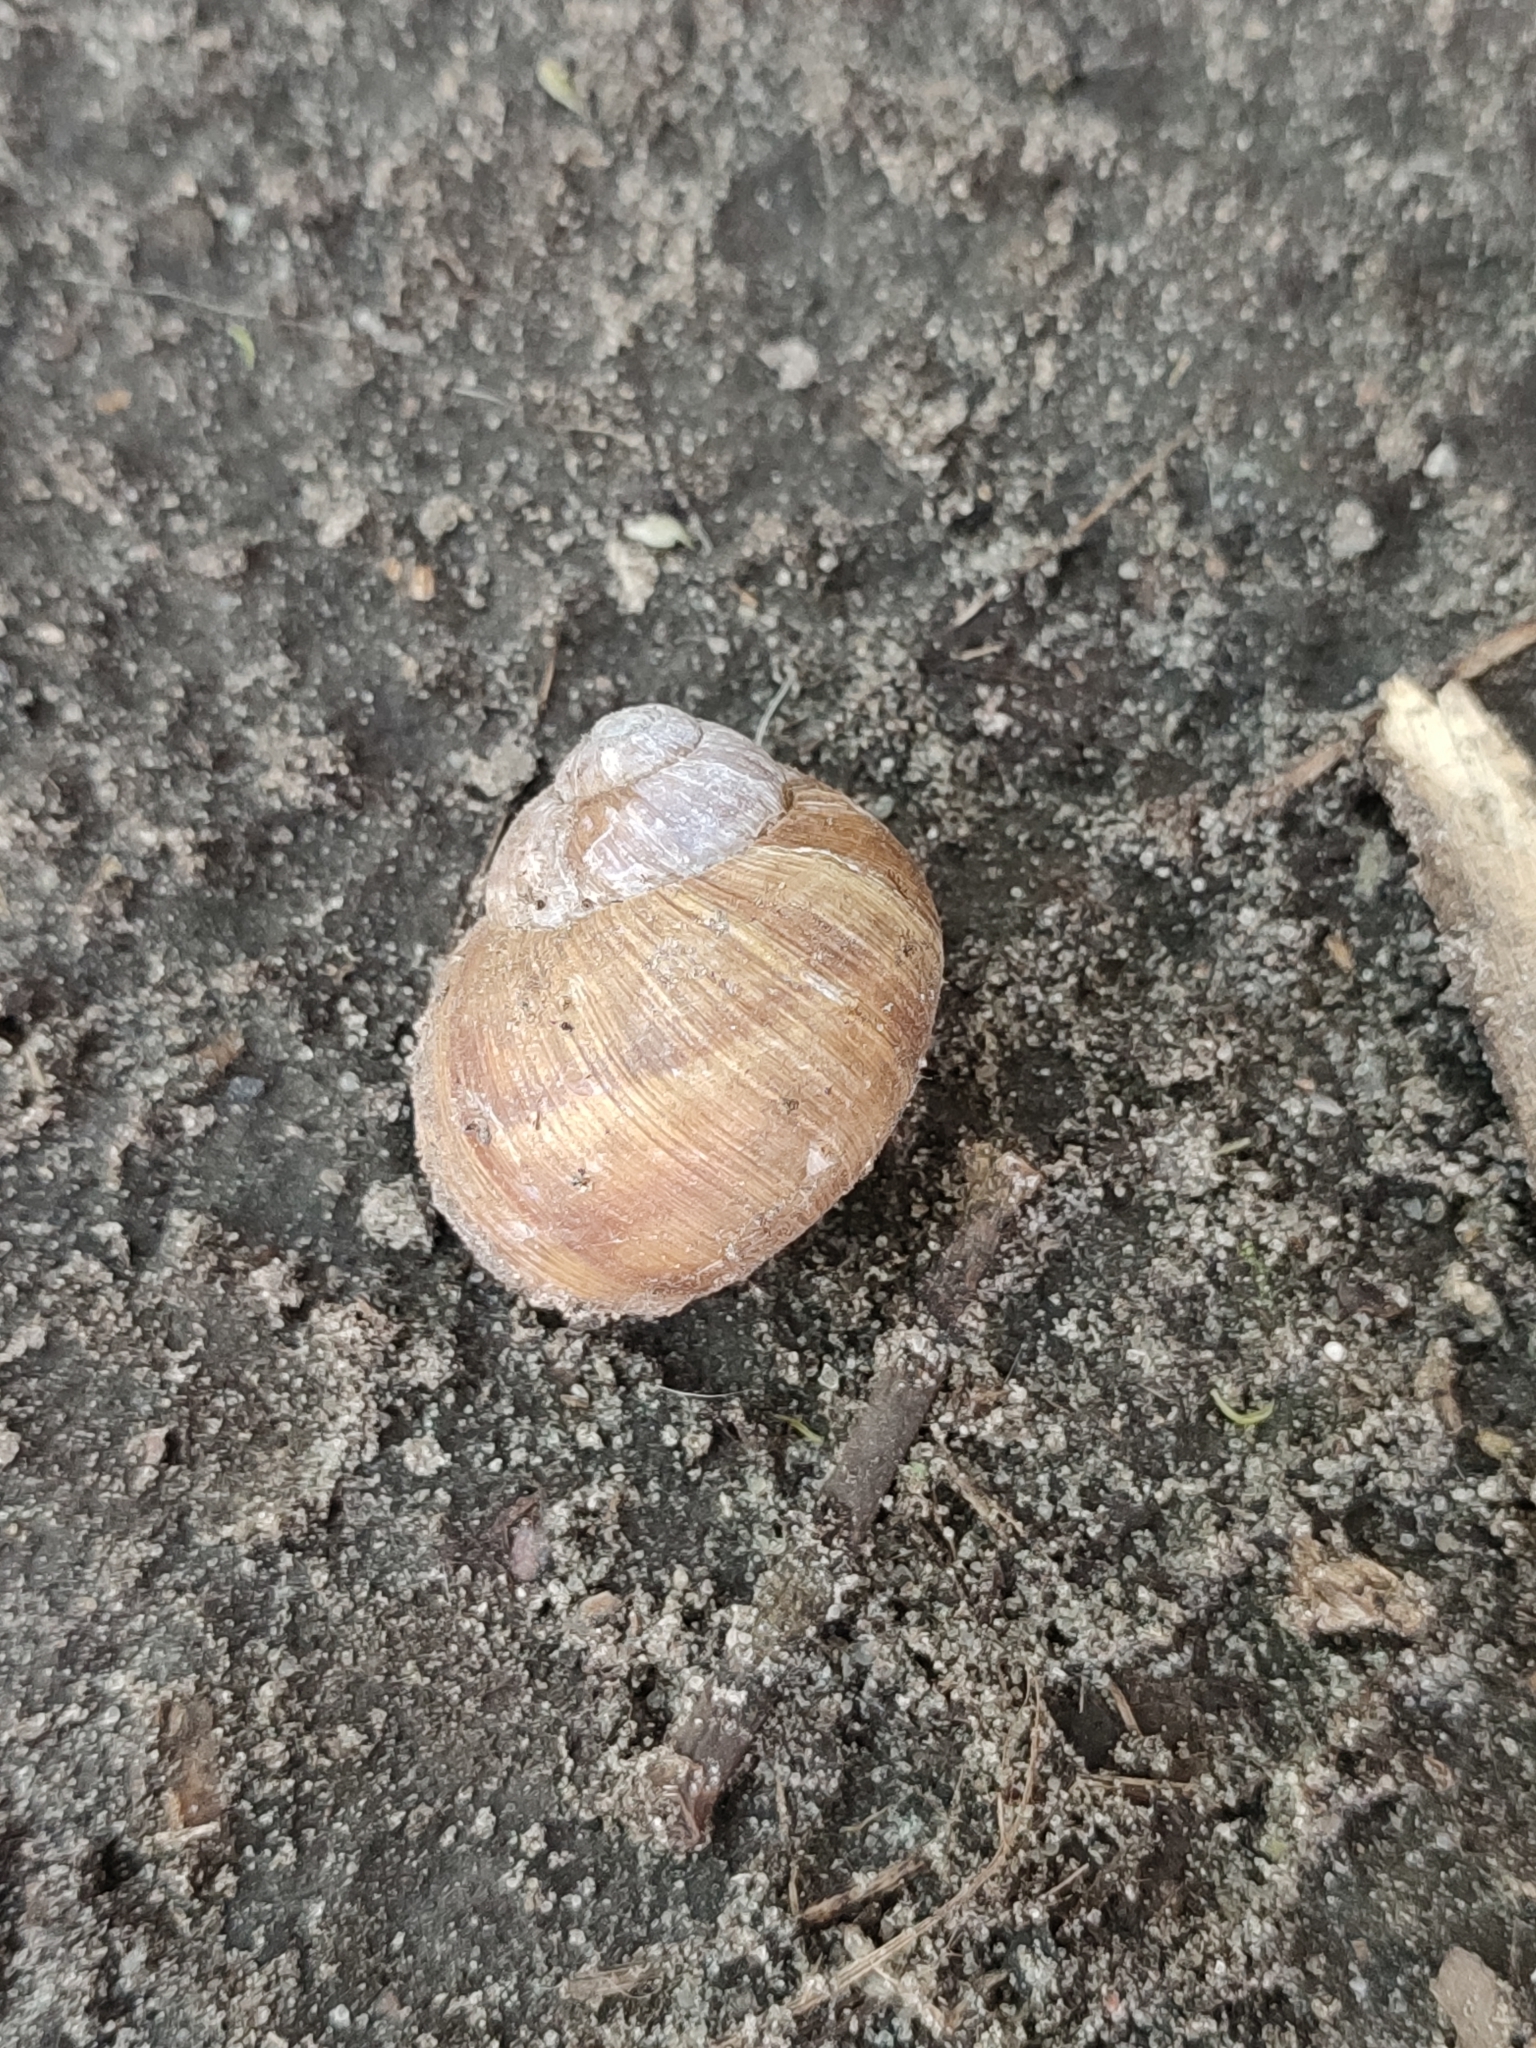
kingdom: Animalia
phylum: Mollusca
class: Gastropoda
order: Stylommatophora
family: Helicidae
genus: Helix
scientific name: Helix pomatia
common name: Roman snail
